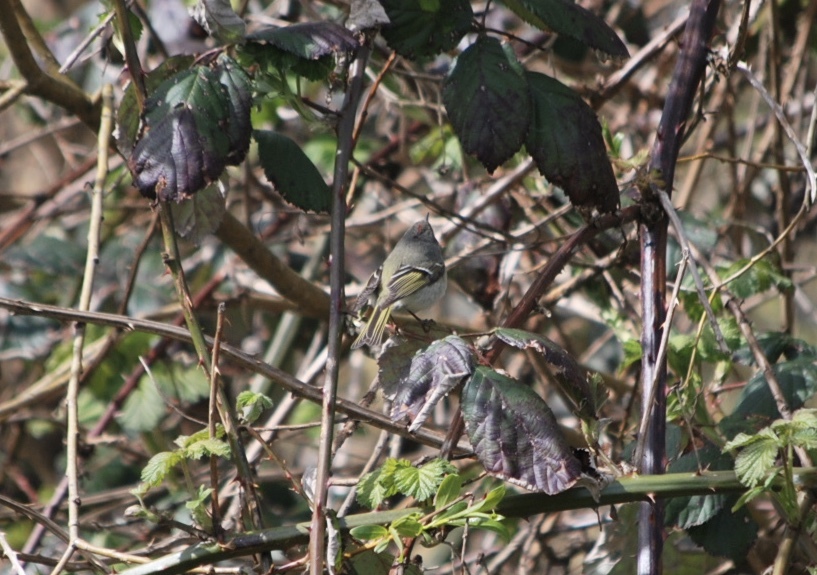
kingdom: Animalia
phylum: Chordata
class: Aves
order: Passeriformes
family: Regulidae
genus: Regulus
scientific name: Regulus calendula
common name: Ruby-crowned kinglet
